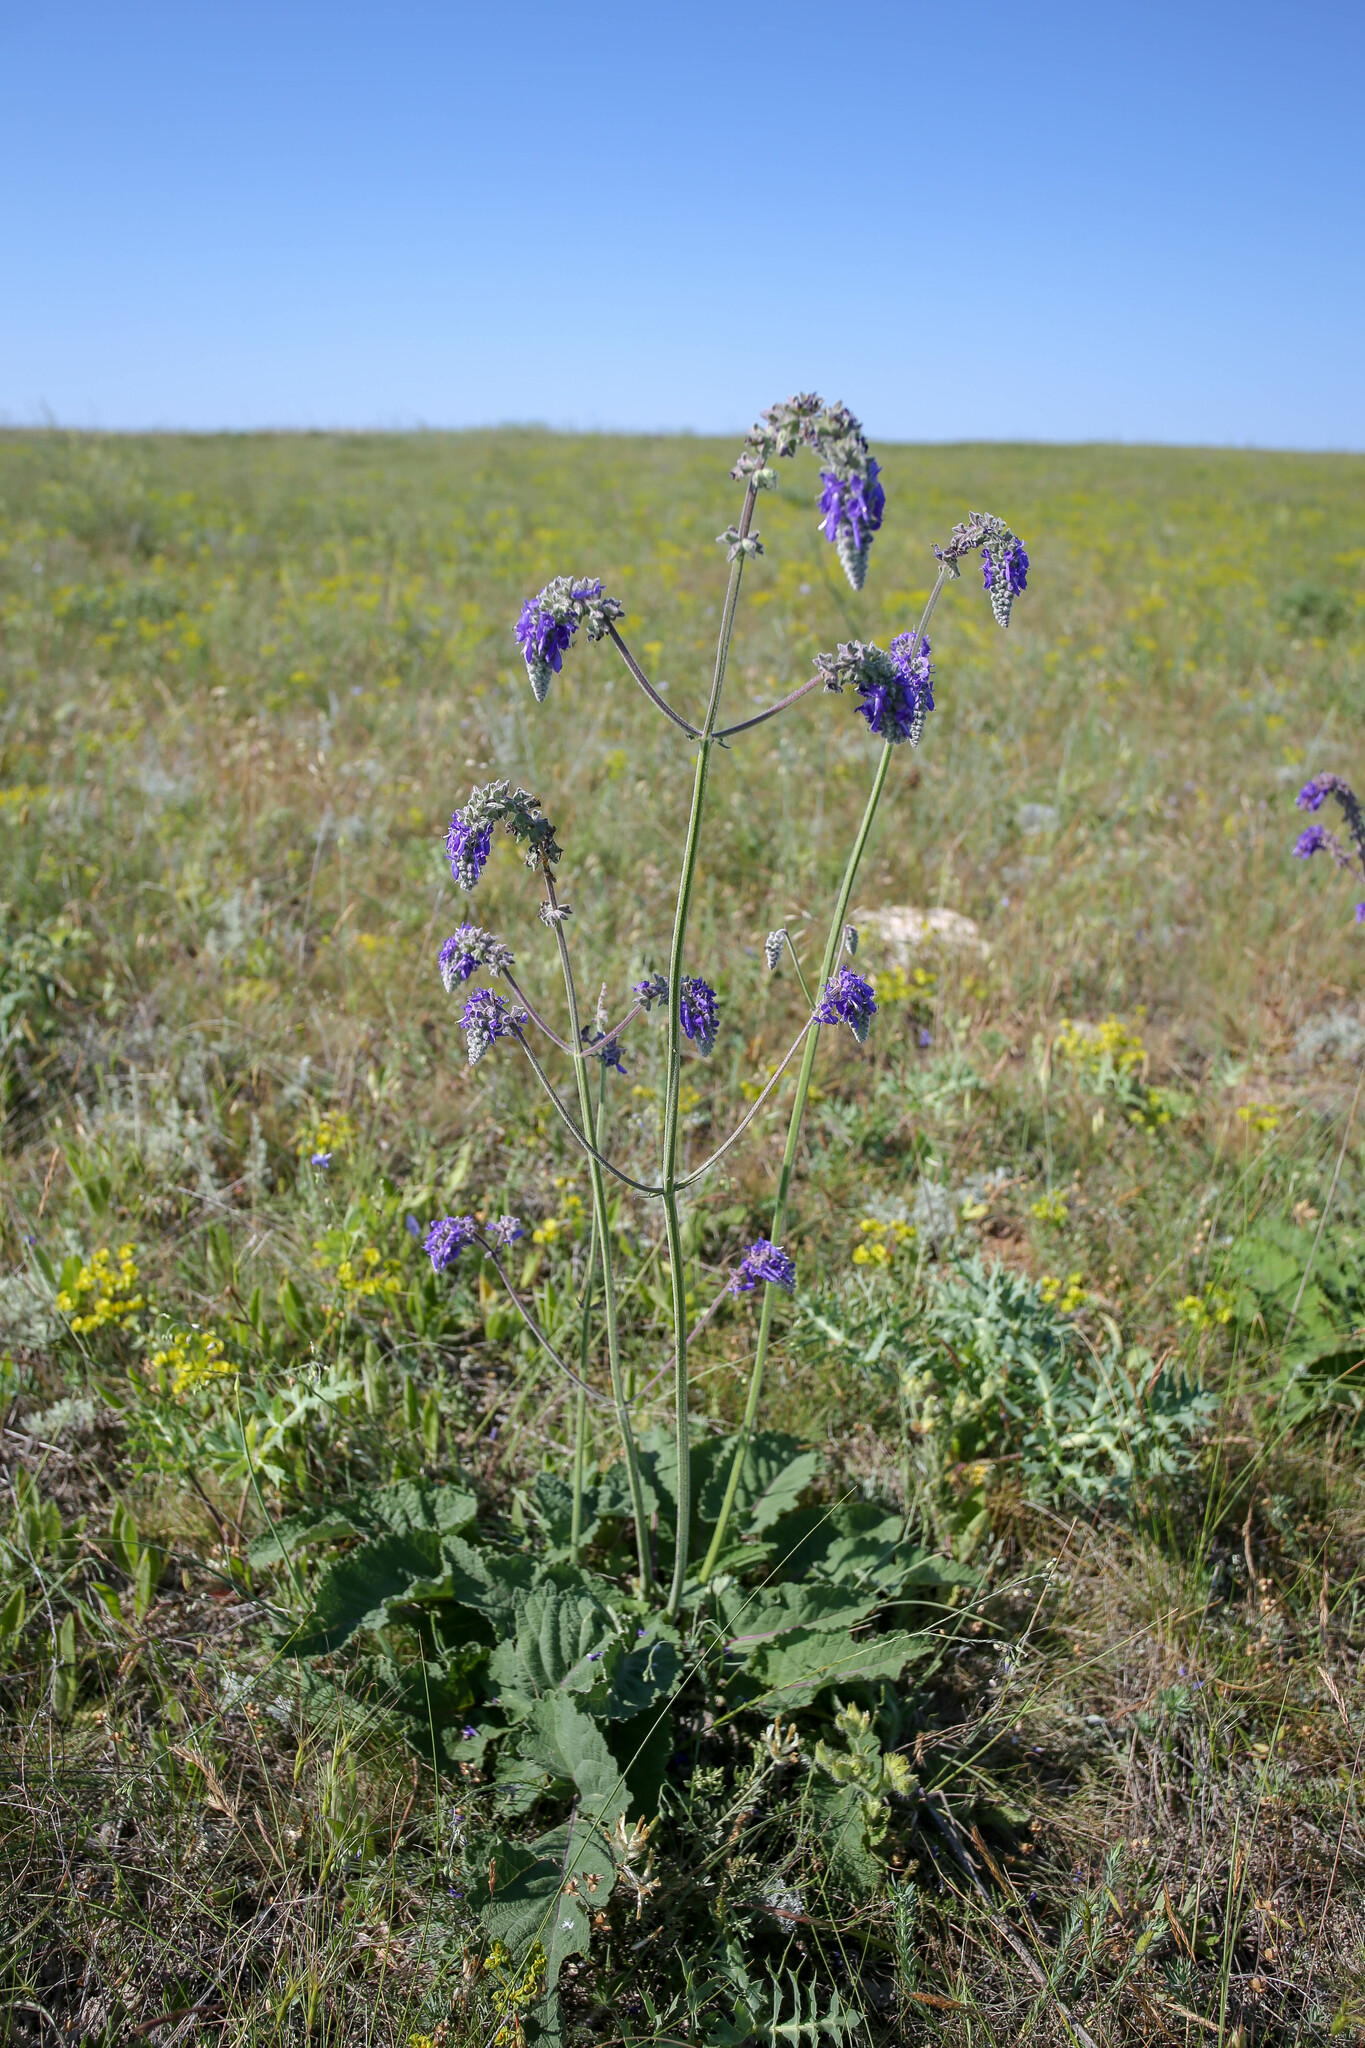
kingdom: Plantae
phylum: Tracheophyta
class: Magnoliopsida
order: Lamiales
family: Lamiaceae
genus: Salvia
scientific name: Salvia nutans
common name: Nodding sage
